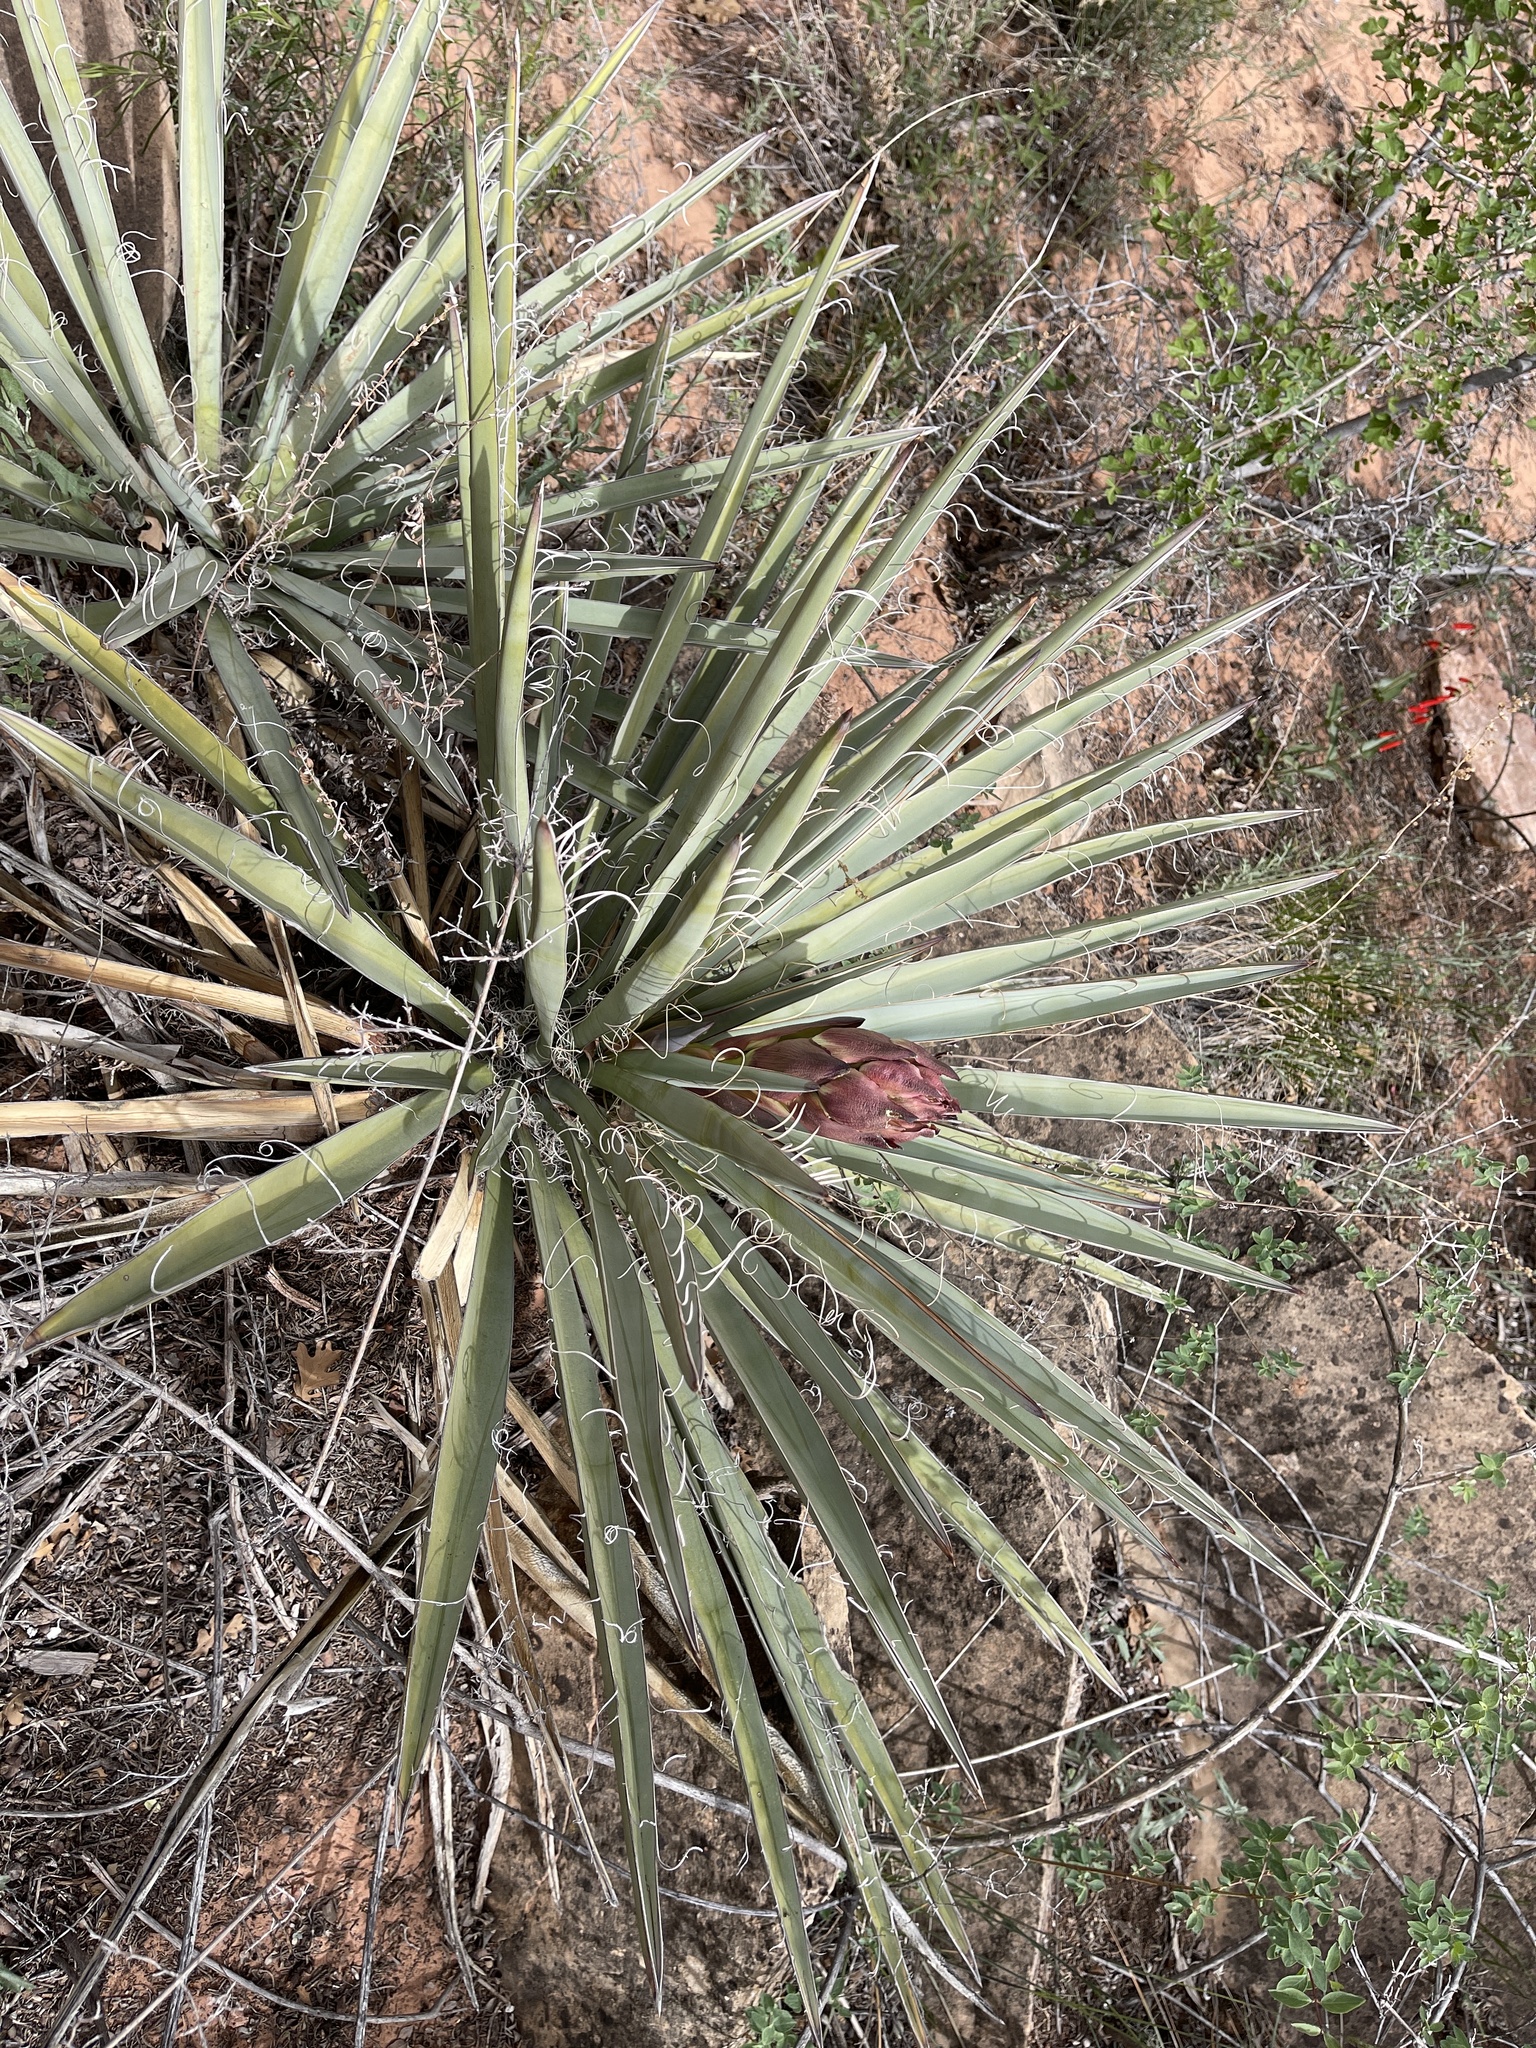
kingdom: Plantae
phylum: Tracheophyta
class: Liliopsida
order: Asparagales
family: Asparagaceae
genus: Yucca
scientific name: Yucca baccata
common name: Banana yucca
